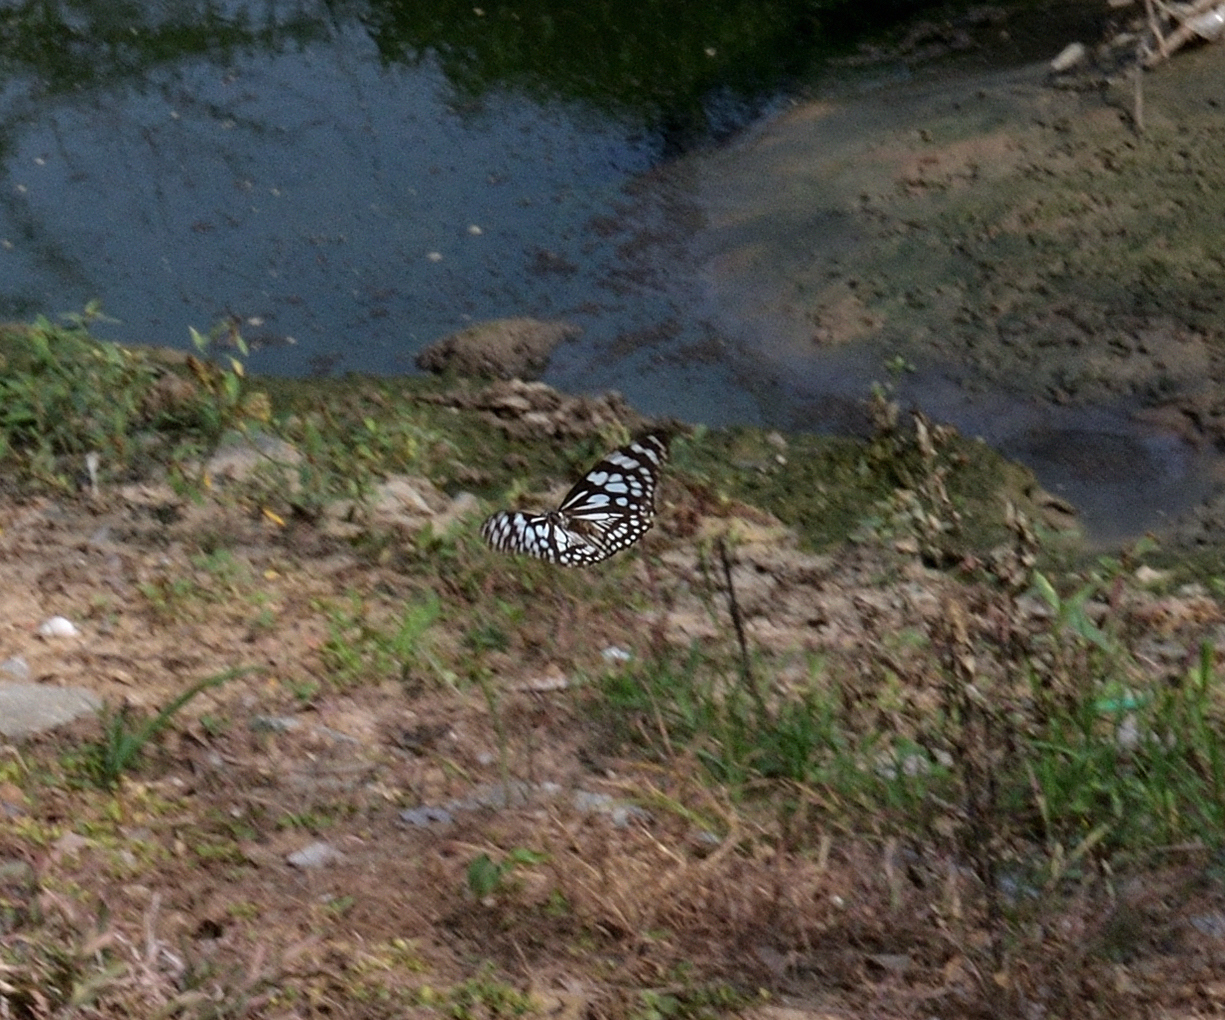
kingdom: Animalia
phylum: Arthropoda
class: Insecta
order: Lepidoptera
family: Nymphalidae
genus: Tirumala
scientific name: Tirumala limniace
